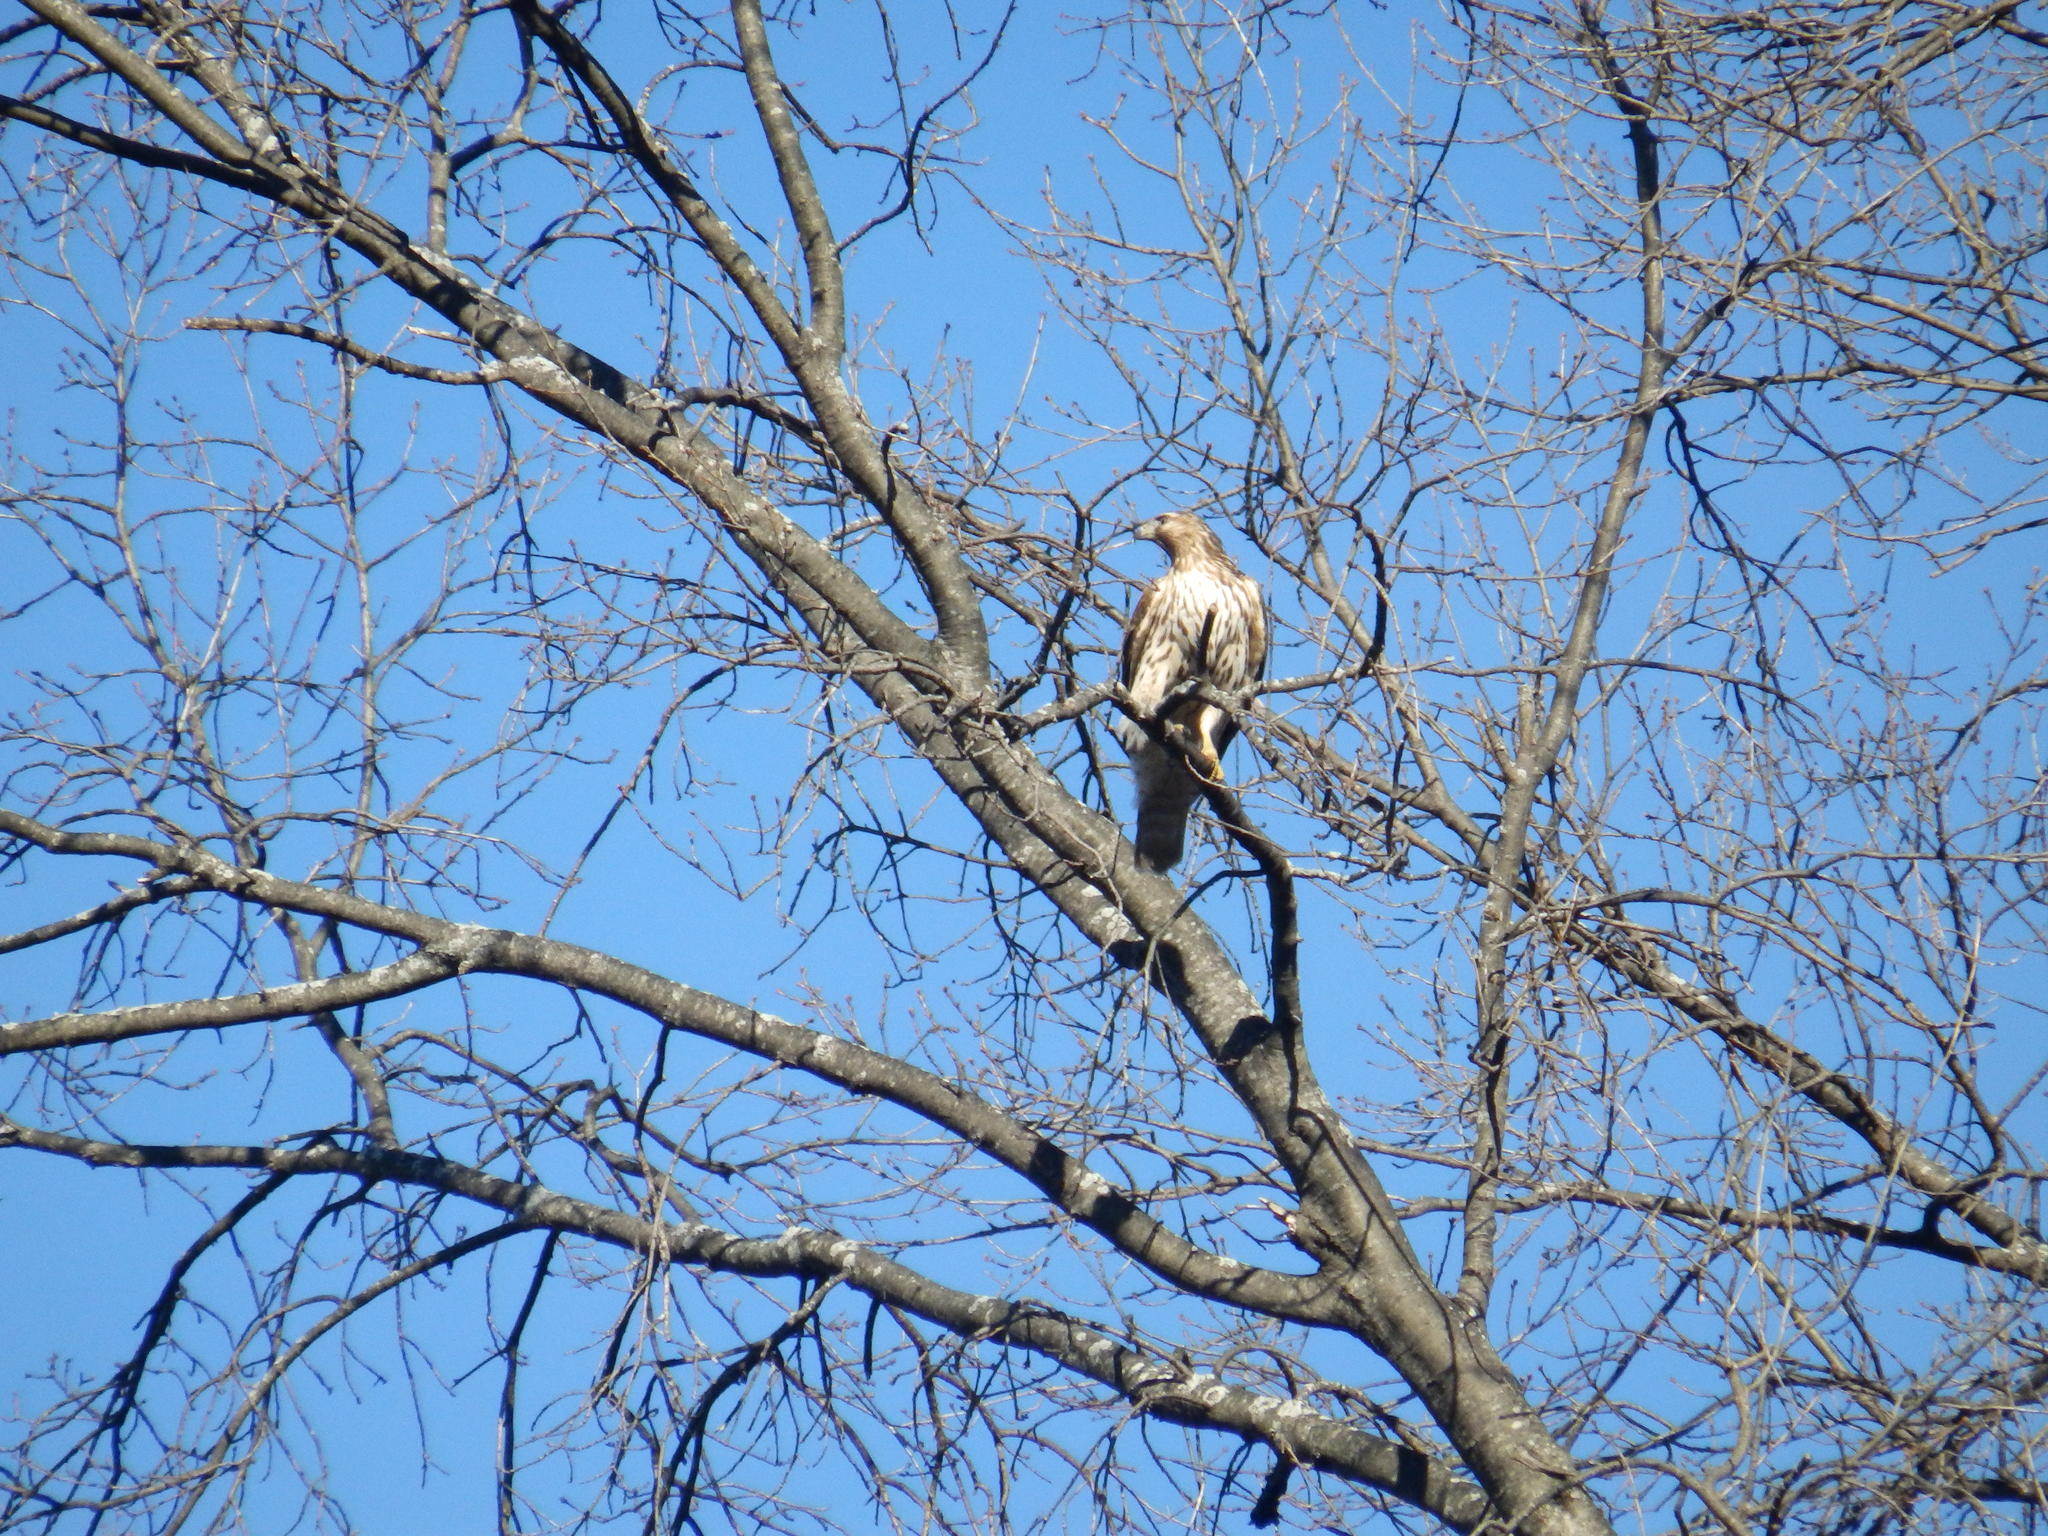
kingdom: Animalia
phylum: Chordata
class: Aves
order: Accipitriformes
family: Accipitridae
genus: Buteo
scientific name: Buteo jamaicensis
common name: Red-tailed hawk
